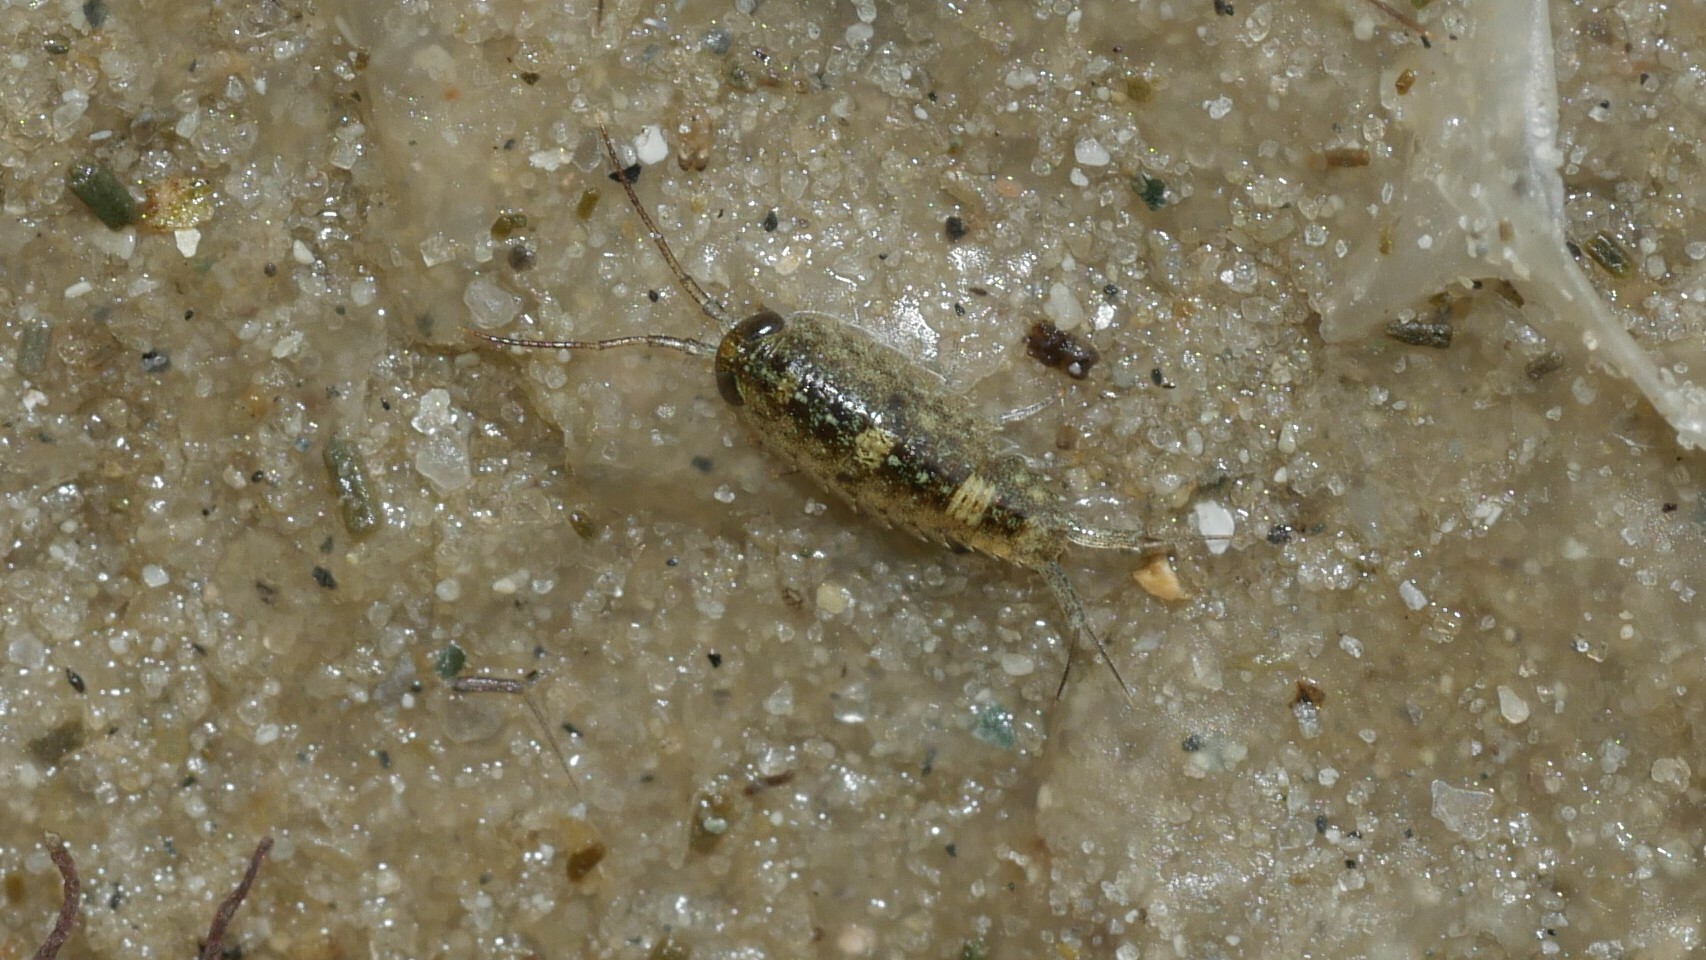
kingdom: Animalia
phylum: Arthropoda
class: Malacostraca
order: Isopoda
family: Ligiidae
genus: Ligia
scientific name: Ligia exotica
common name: Wharf roach
